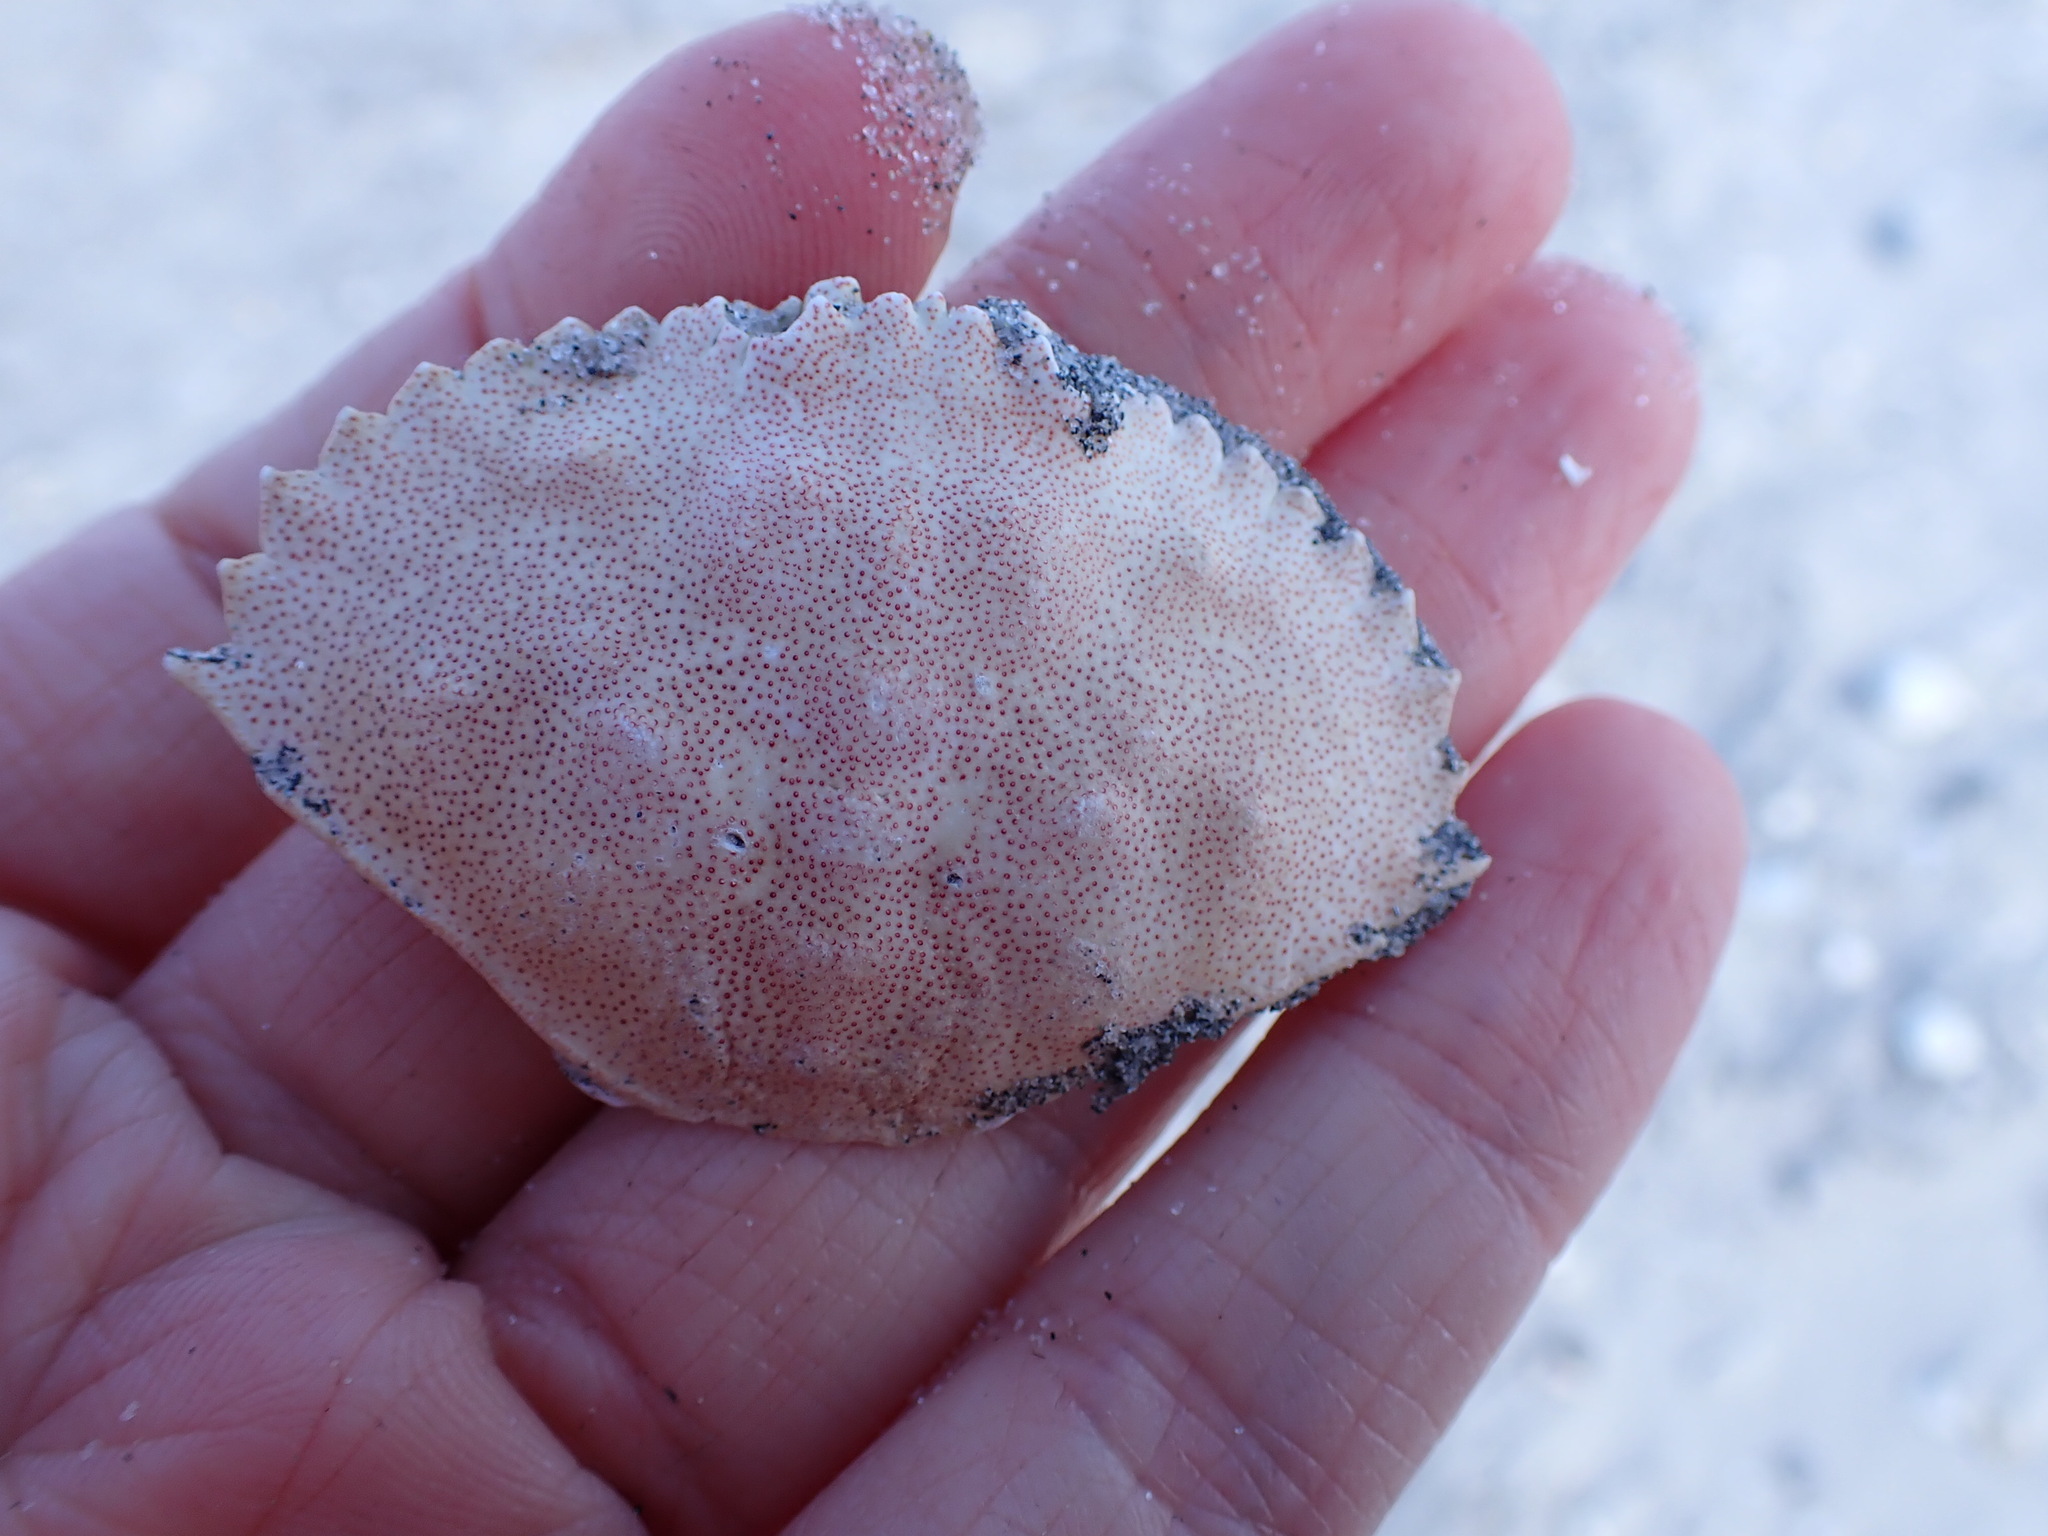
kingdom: Animalia
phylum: Arthropoda
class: Malacostraca
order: Decapoda
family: Cancridae
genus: Cancer
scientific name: Cancer irroratus
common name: Atlantic rock crab
